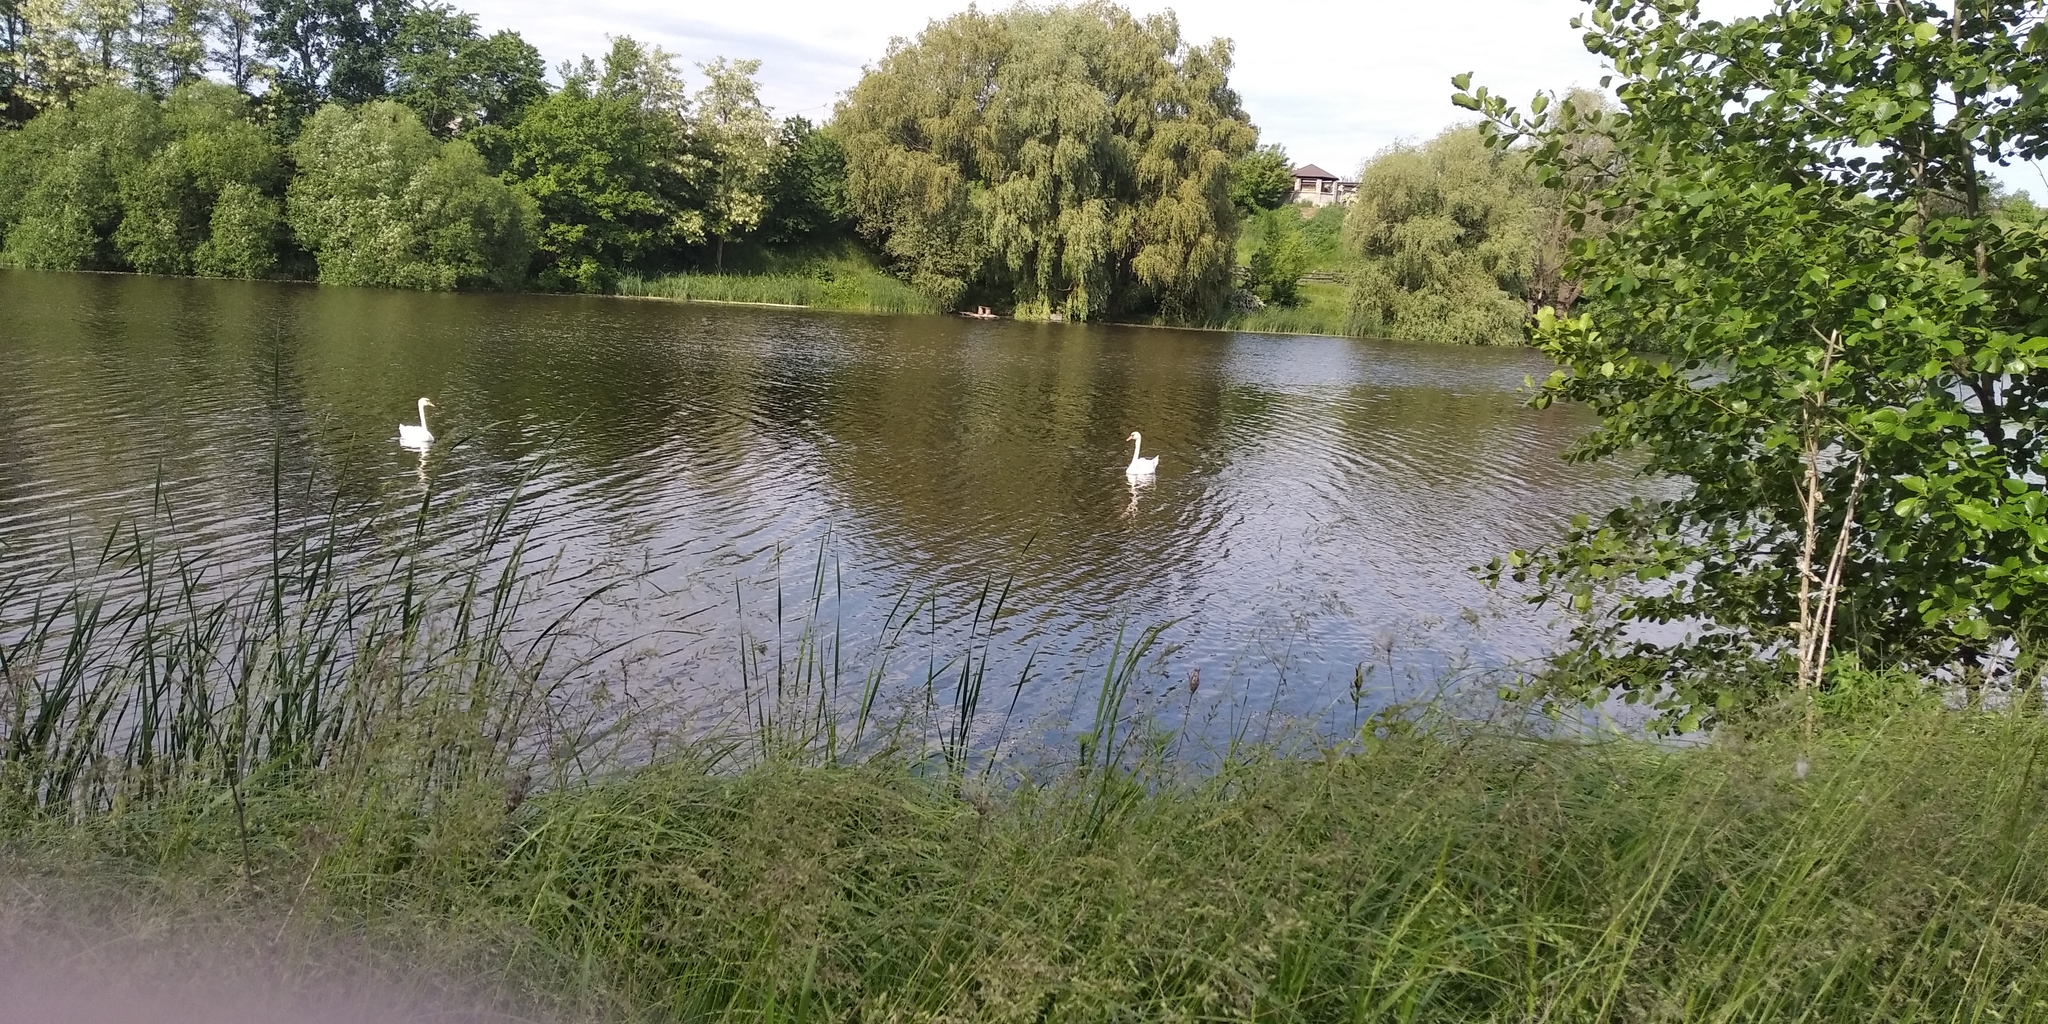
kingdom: Animalia
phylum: Chordata
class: Aves
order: Anseriformes
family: Anatidae
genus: Cygnus
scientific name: Cygnus olor
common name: Mute swan
